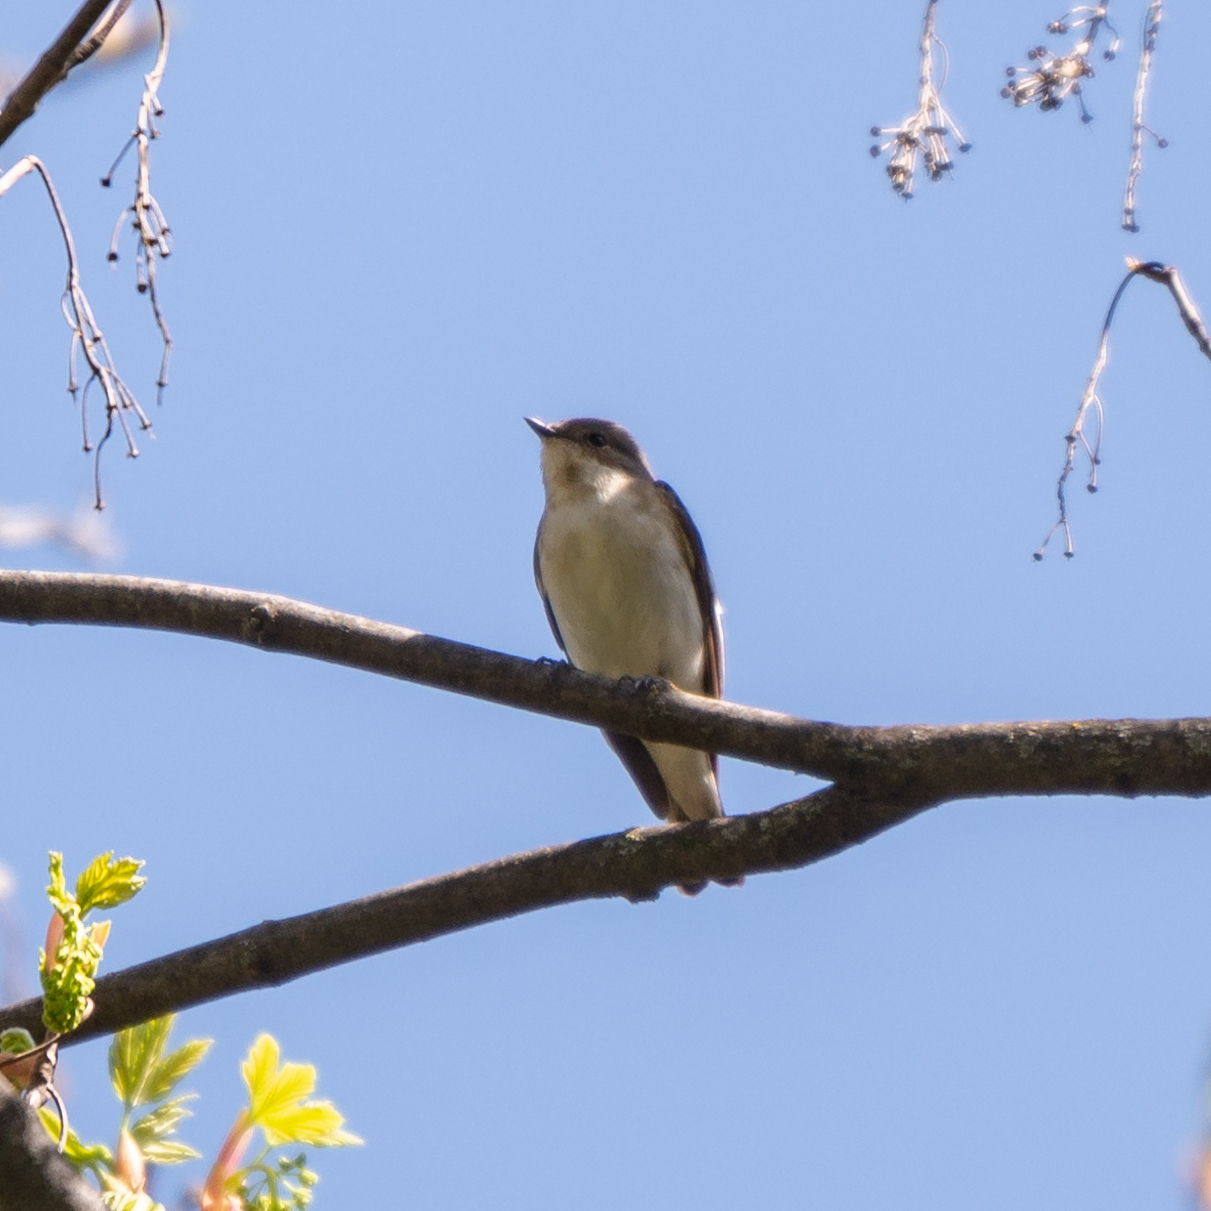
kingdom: Animalia
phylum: Chordata
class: Aves
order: Passeriformes
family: Muscicapidae
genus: Ficedula
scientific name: Ficedula hypoleuca
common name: European pied flycatcher
